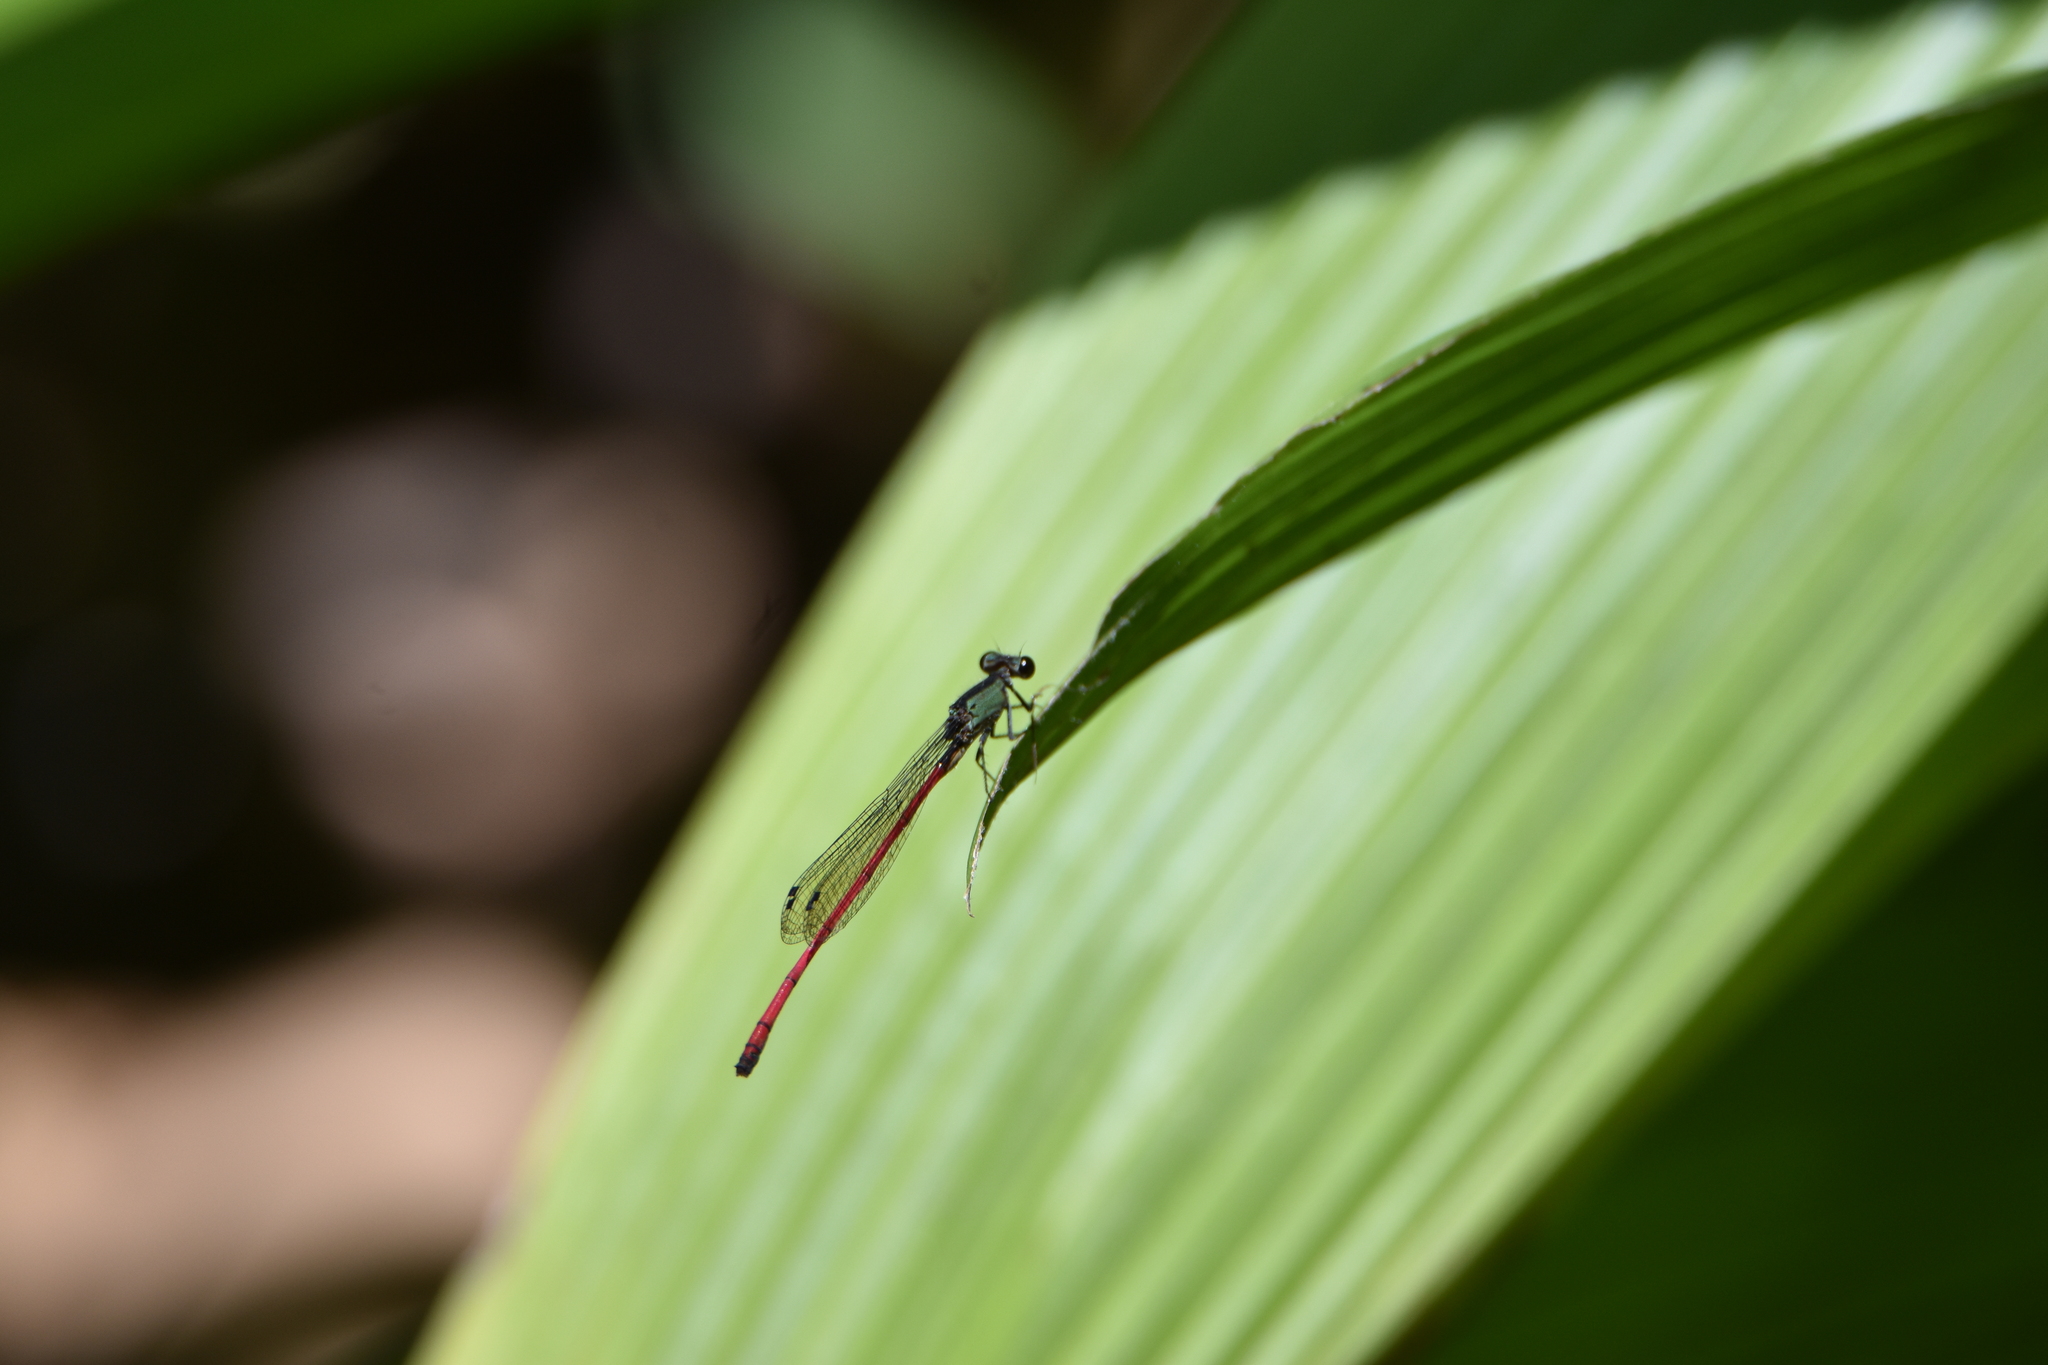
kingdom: Animalia
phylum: Arthropoda
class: Insecta
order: Odonata
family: Coenagrionidae
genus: Oxyagrion
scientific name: Oxyagrion chapadense
